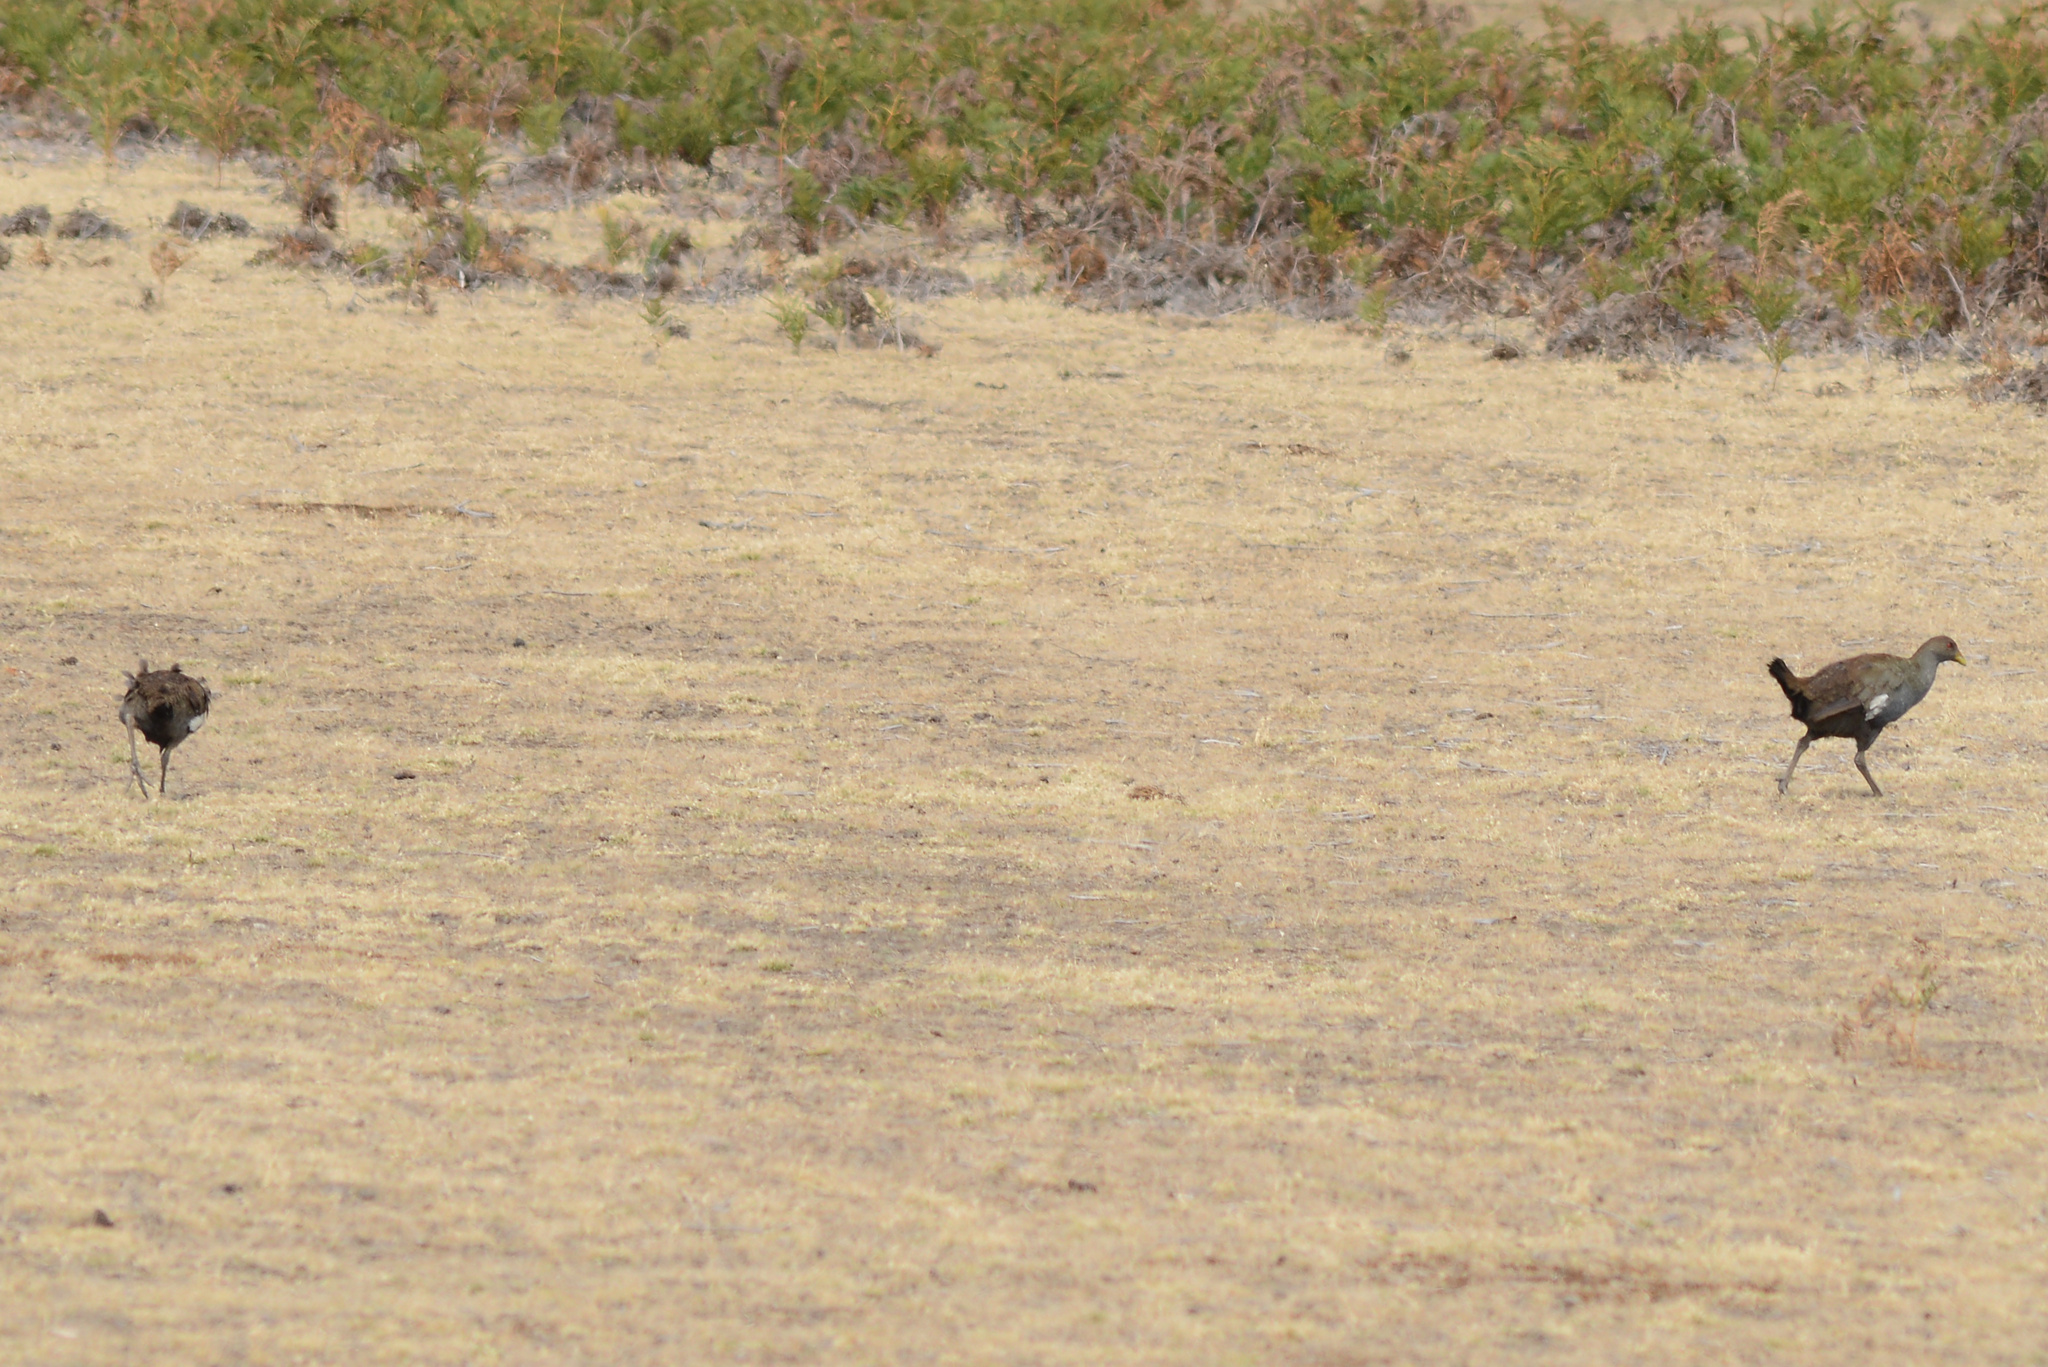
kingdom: Animalia
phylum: Chordata
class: Aves
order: Gruiformes
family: Rallidae
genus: Gallinula
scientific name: Gallinula mortierii
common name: Tasmanian nativehen
